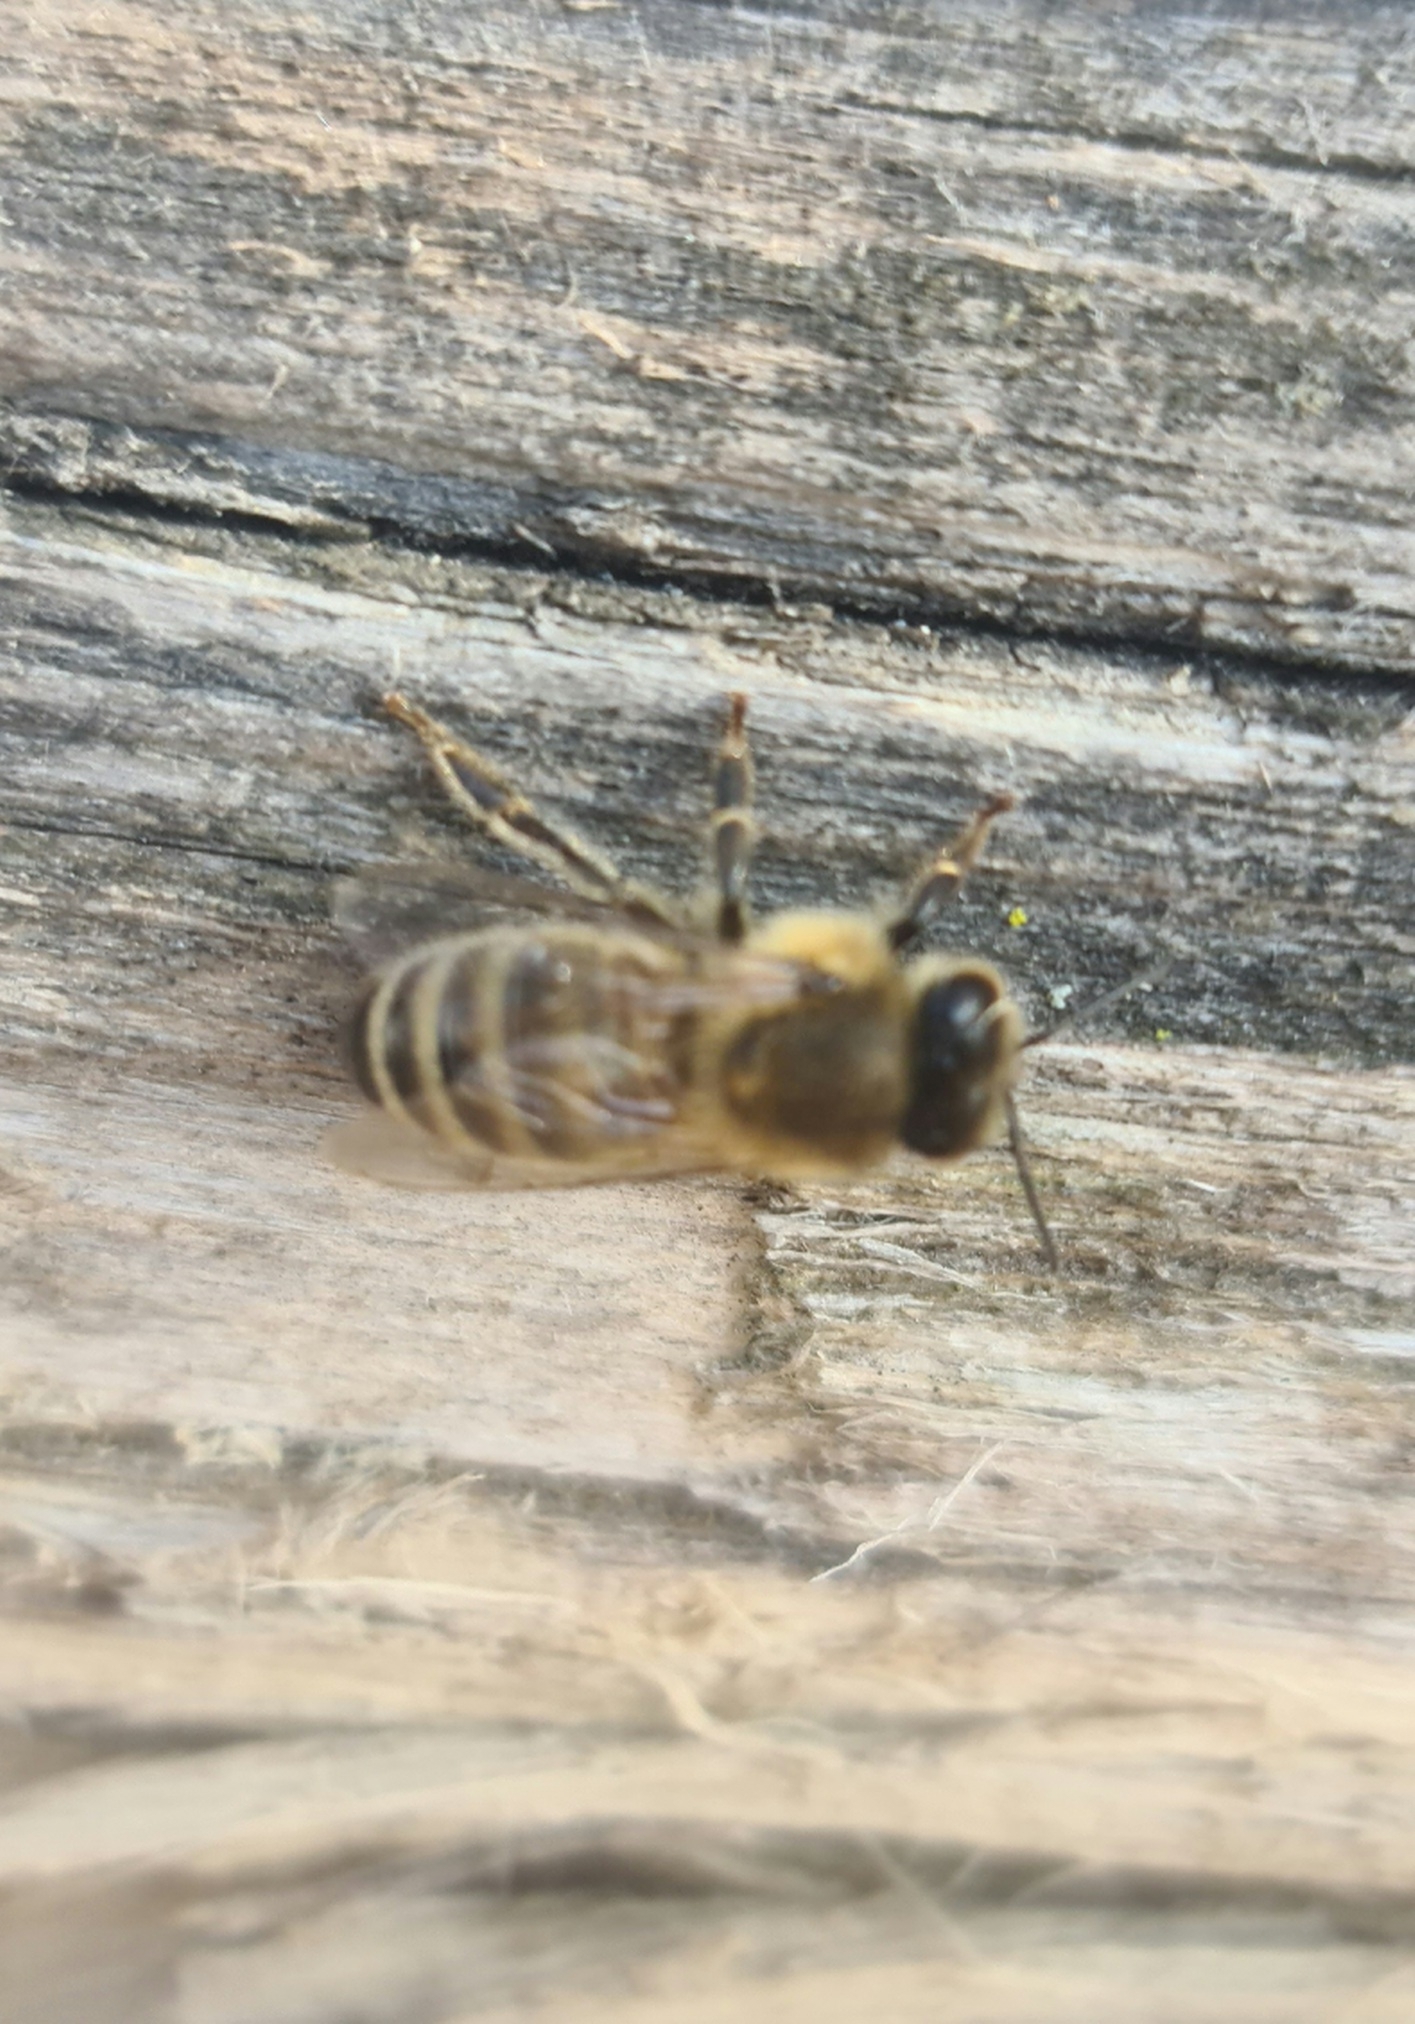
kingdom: Animalia
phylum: Arthropoda
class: Insecta
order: Hymenoptera
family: Apidae
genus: Apis
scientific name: Apis mellifera
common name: Honey bee
